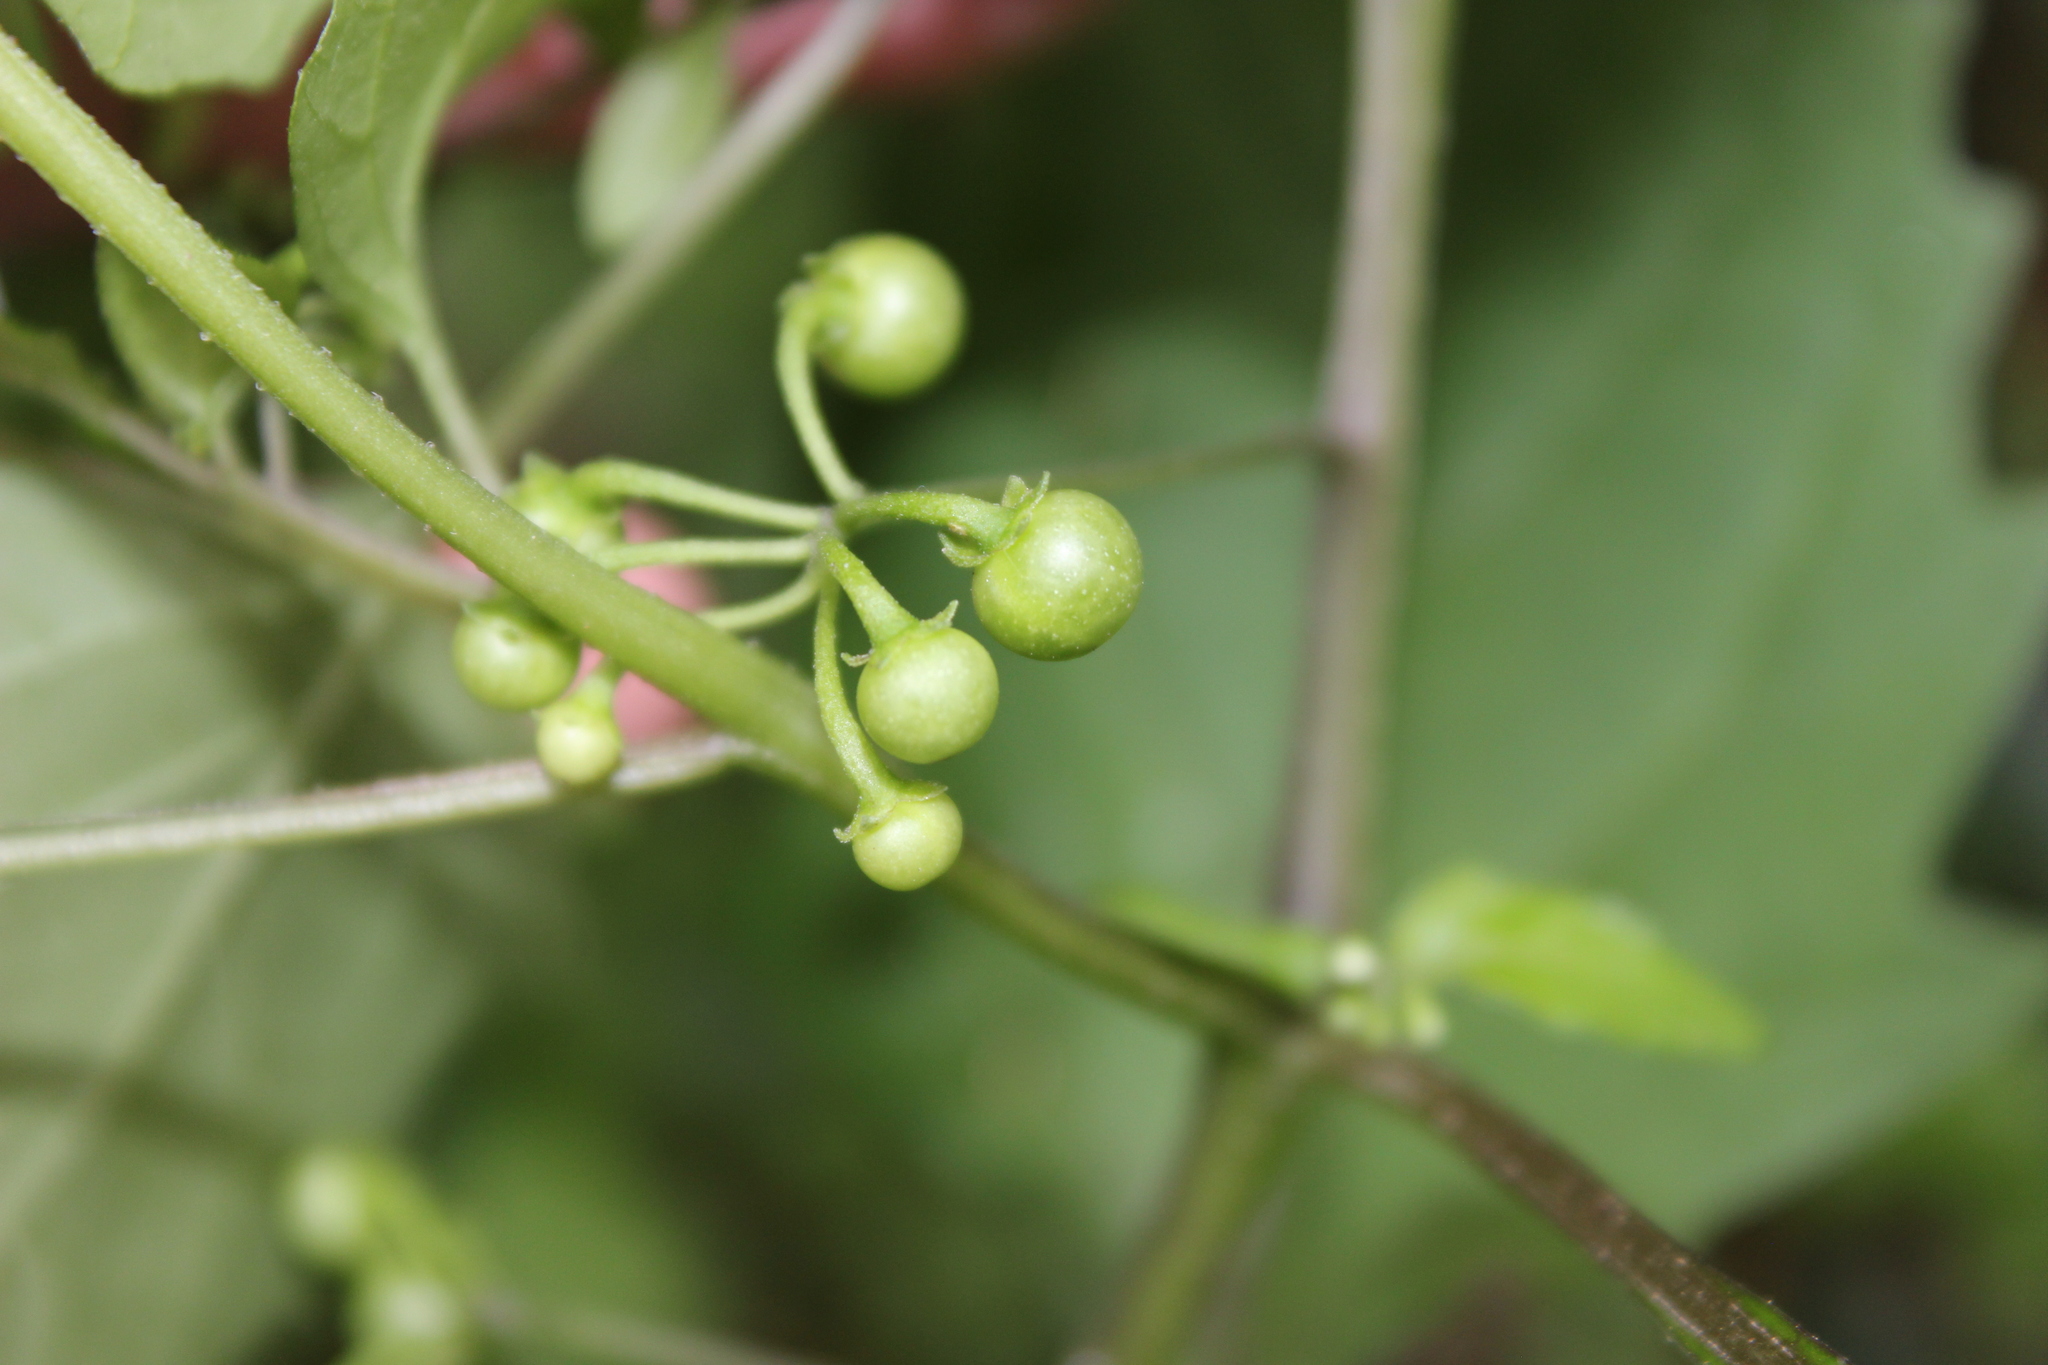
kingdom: Plantae
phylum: Tracheophyta
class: Magnoliopsida
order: Solanales
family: Solanaceae
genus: Solanum
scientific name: Solanum americanum
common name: American black nightshade
